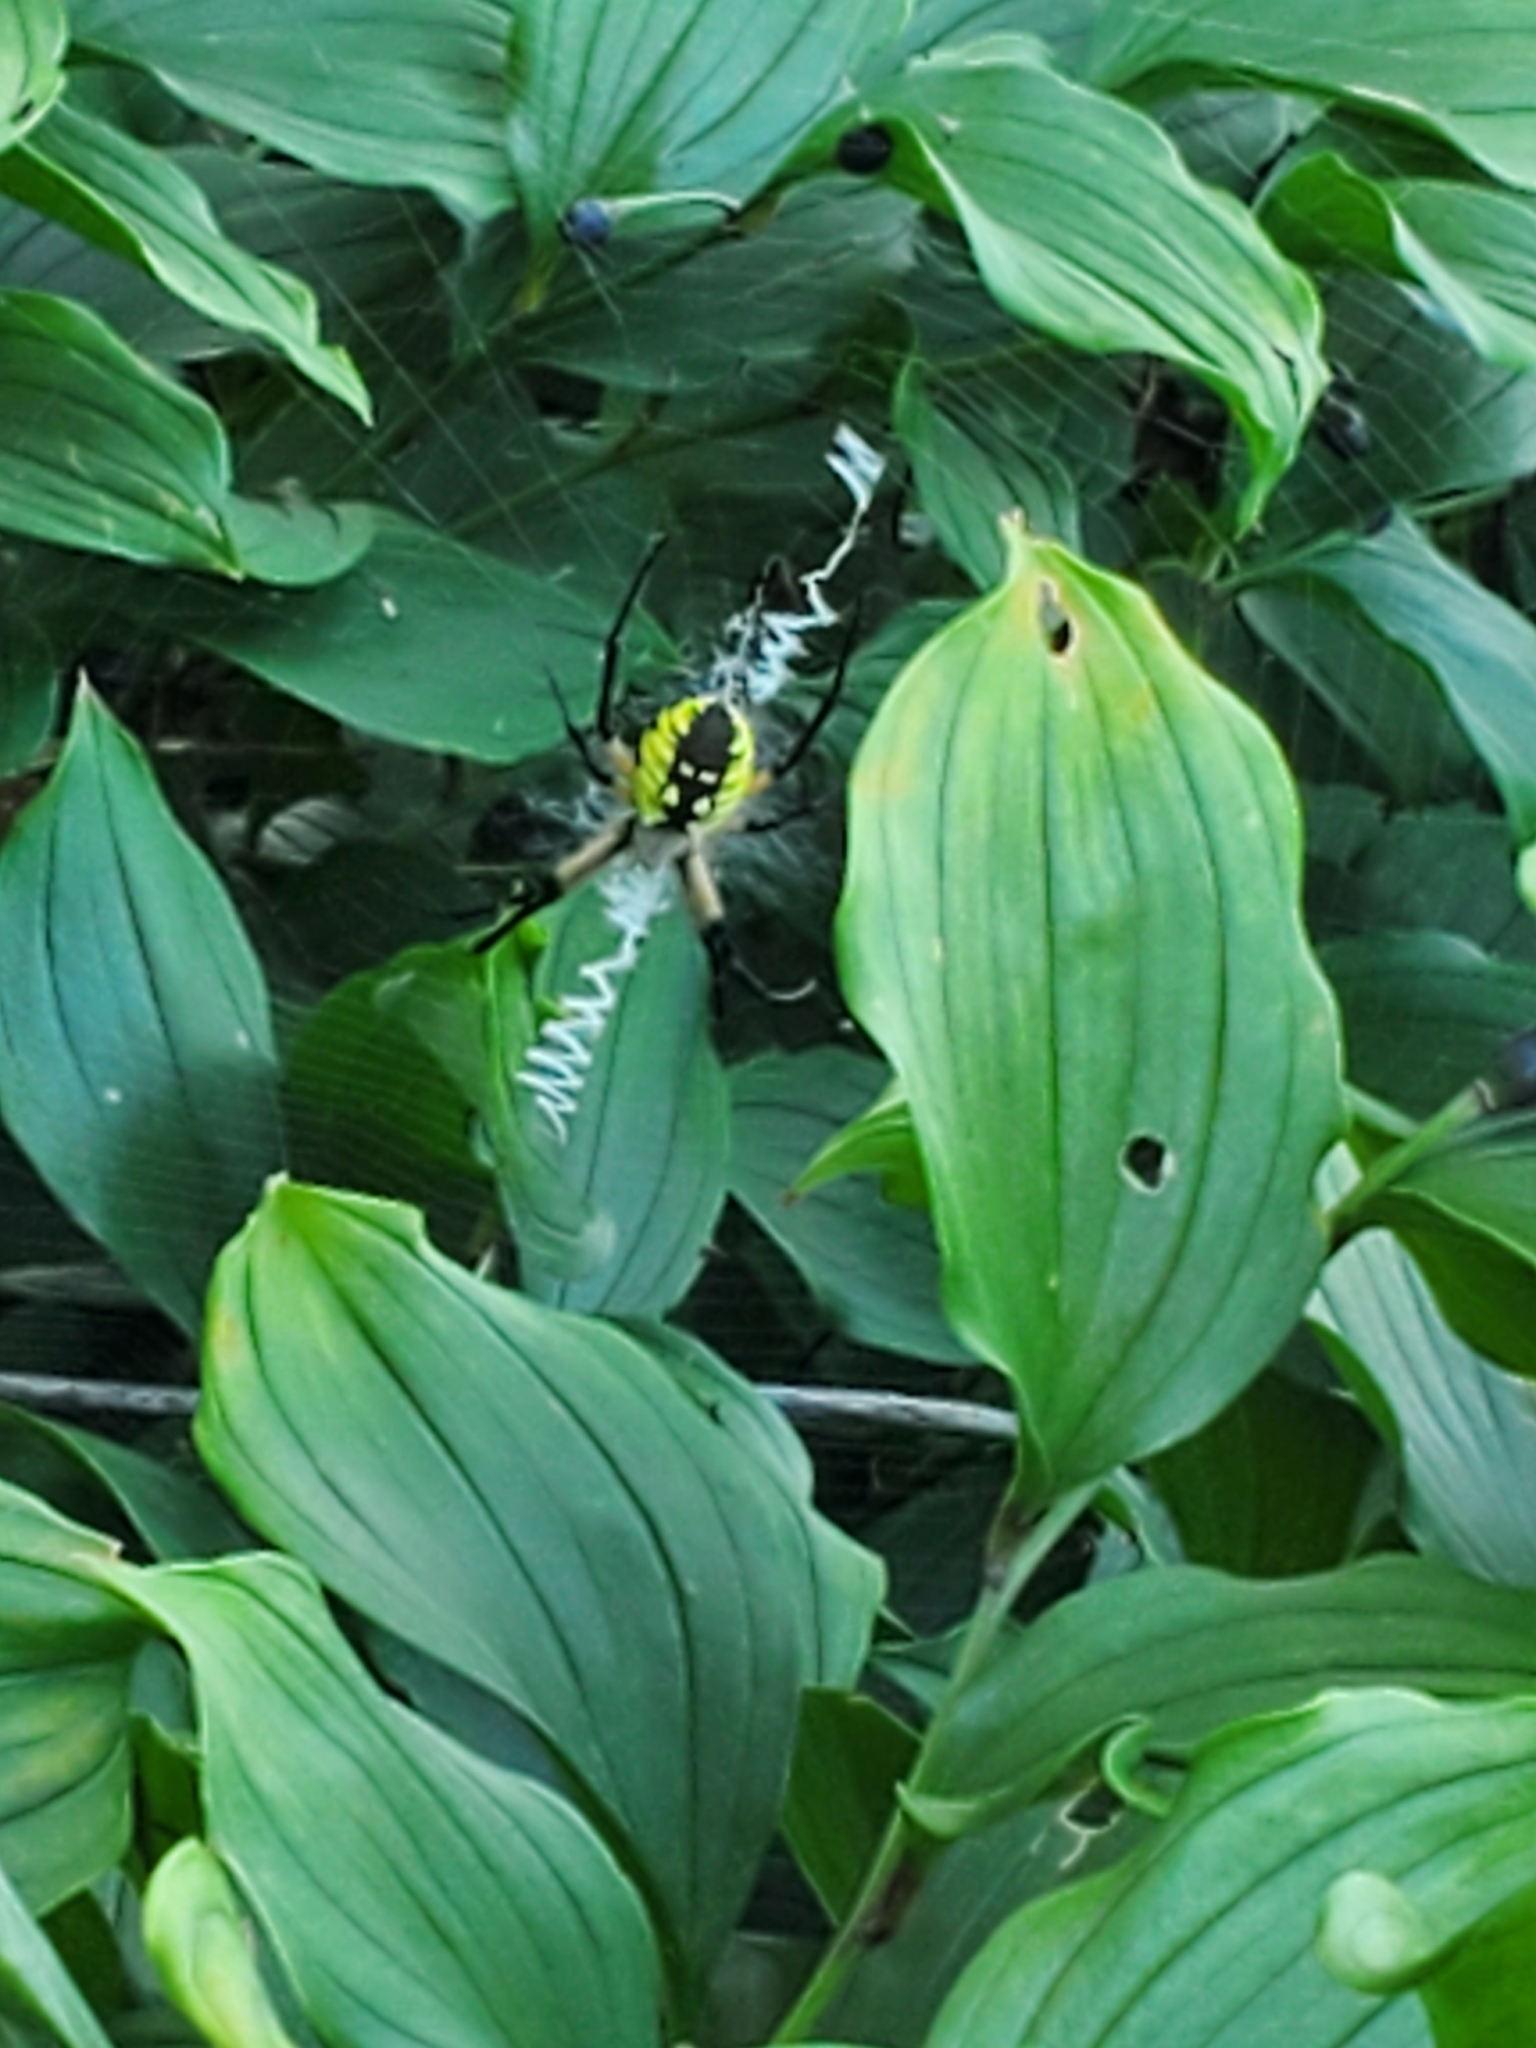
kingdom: Animalia
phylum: Arthropoda
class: Arachnida
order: Araneae
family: Araneidae
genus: Argiope
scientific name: Argiope aurantia
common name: Orb weavers
